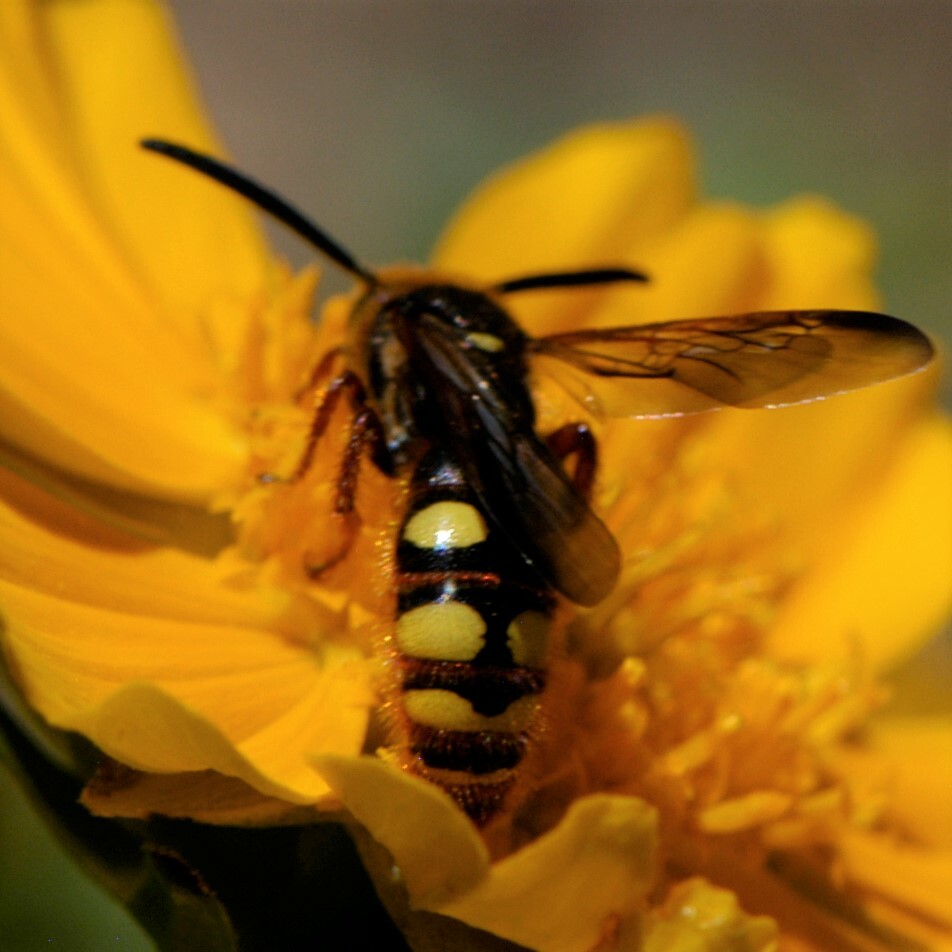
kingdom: Animalia
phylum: Arthropoda
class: Insecta
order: Hymenoptera
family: Scoliidae
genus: Scolia
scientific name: Scolia nobilitata
